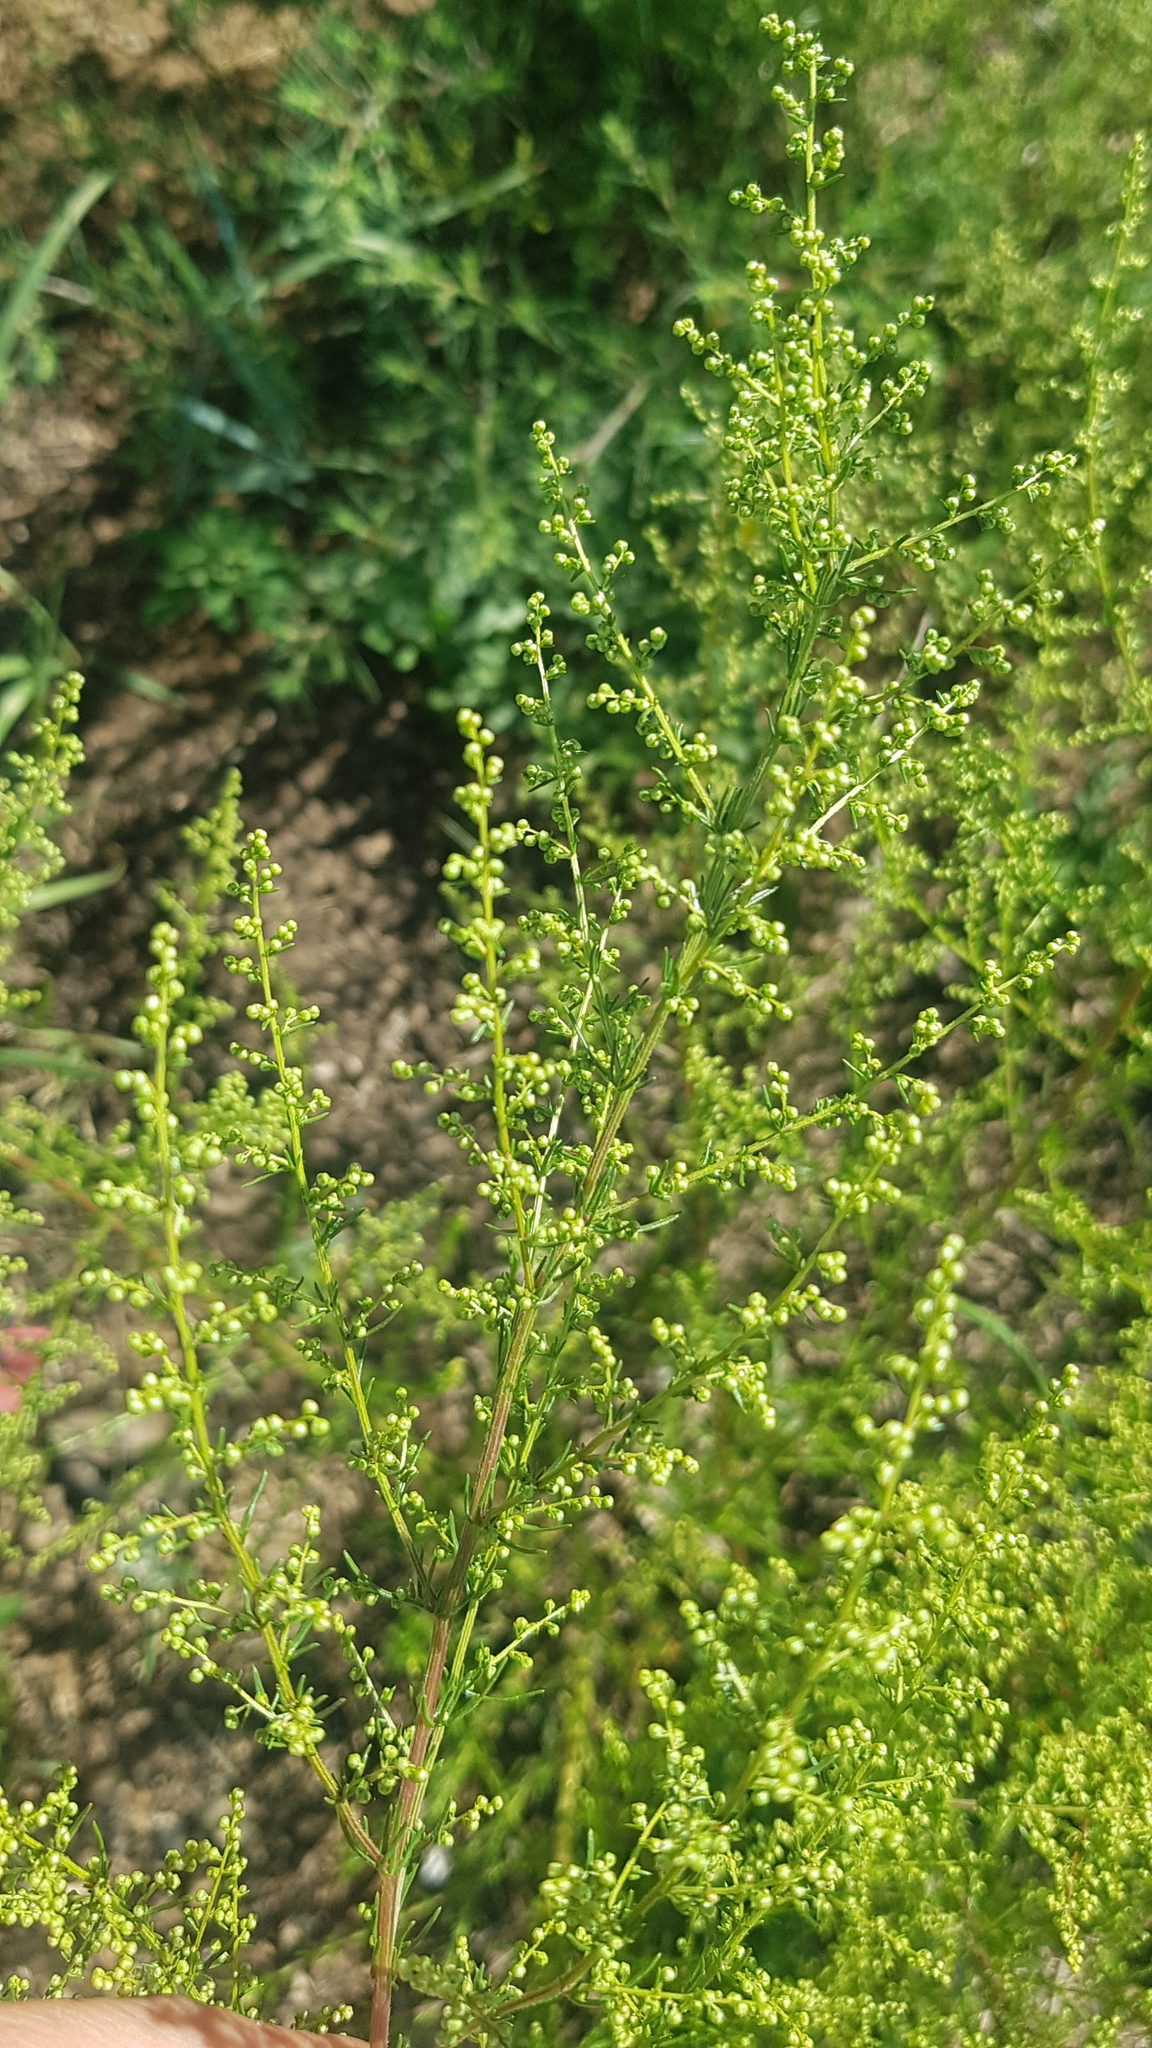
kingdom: Plantae
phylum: Tracheophyta
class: Magnoliopsida
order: Asterales
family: Asteraceae
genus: Artemisia
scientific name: Artemisia scoparia
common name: Redstem wormwood
